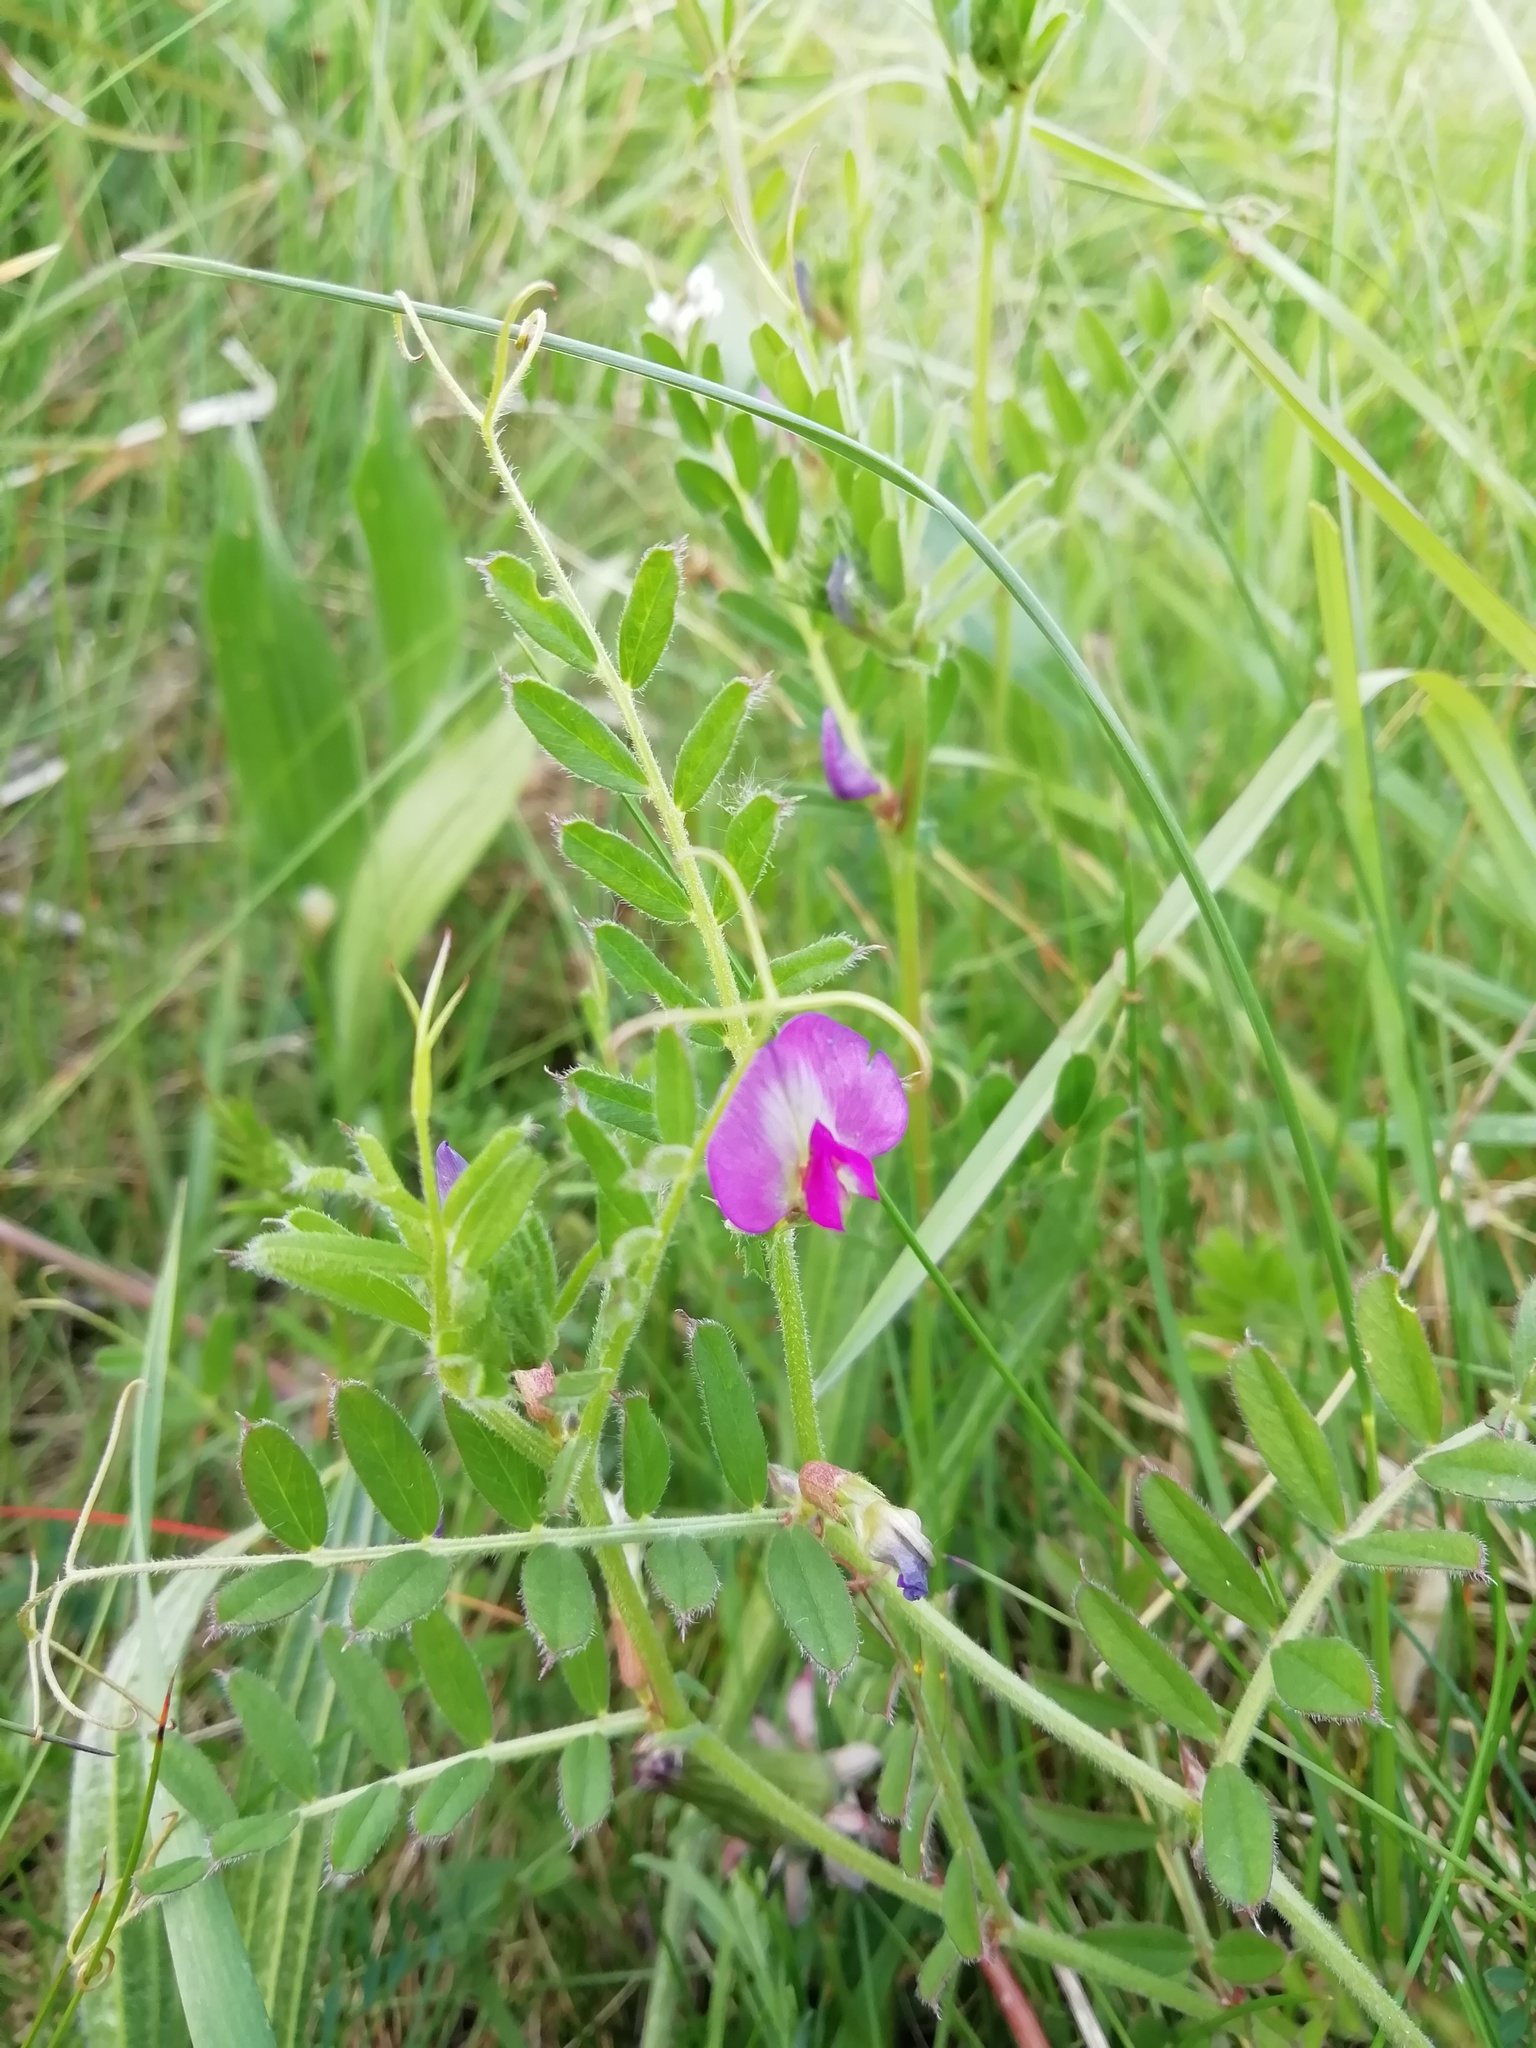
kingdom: Plantae
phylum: Tracheophyta
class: Magnoliopsida
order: Fabales
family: Fabaceae
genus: Vicia
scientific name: Vicia sativa
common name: Garden vetch
